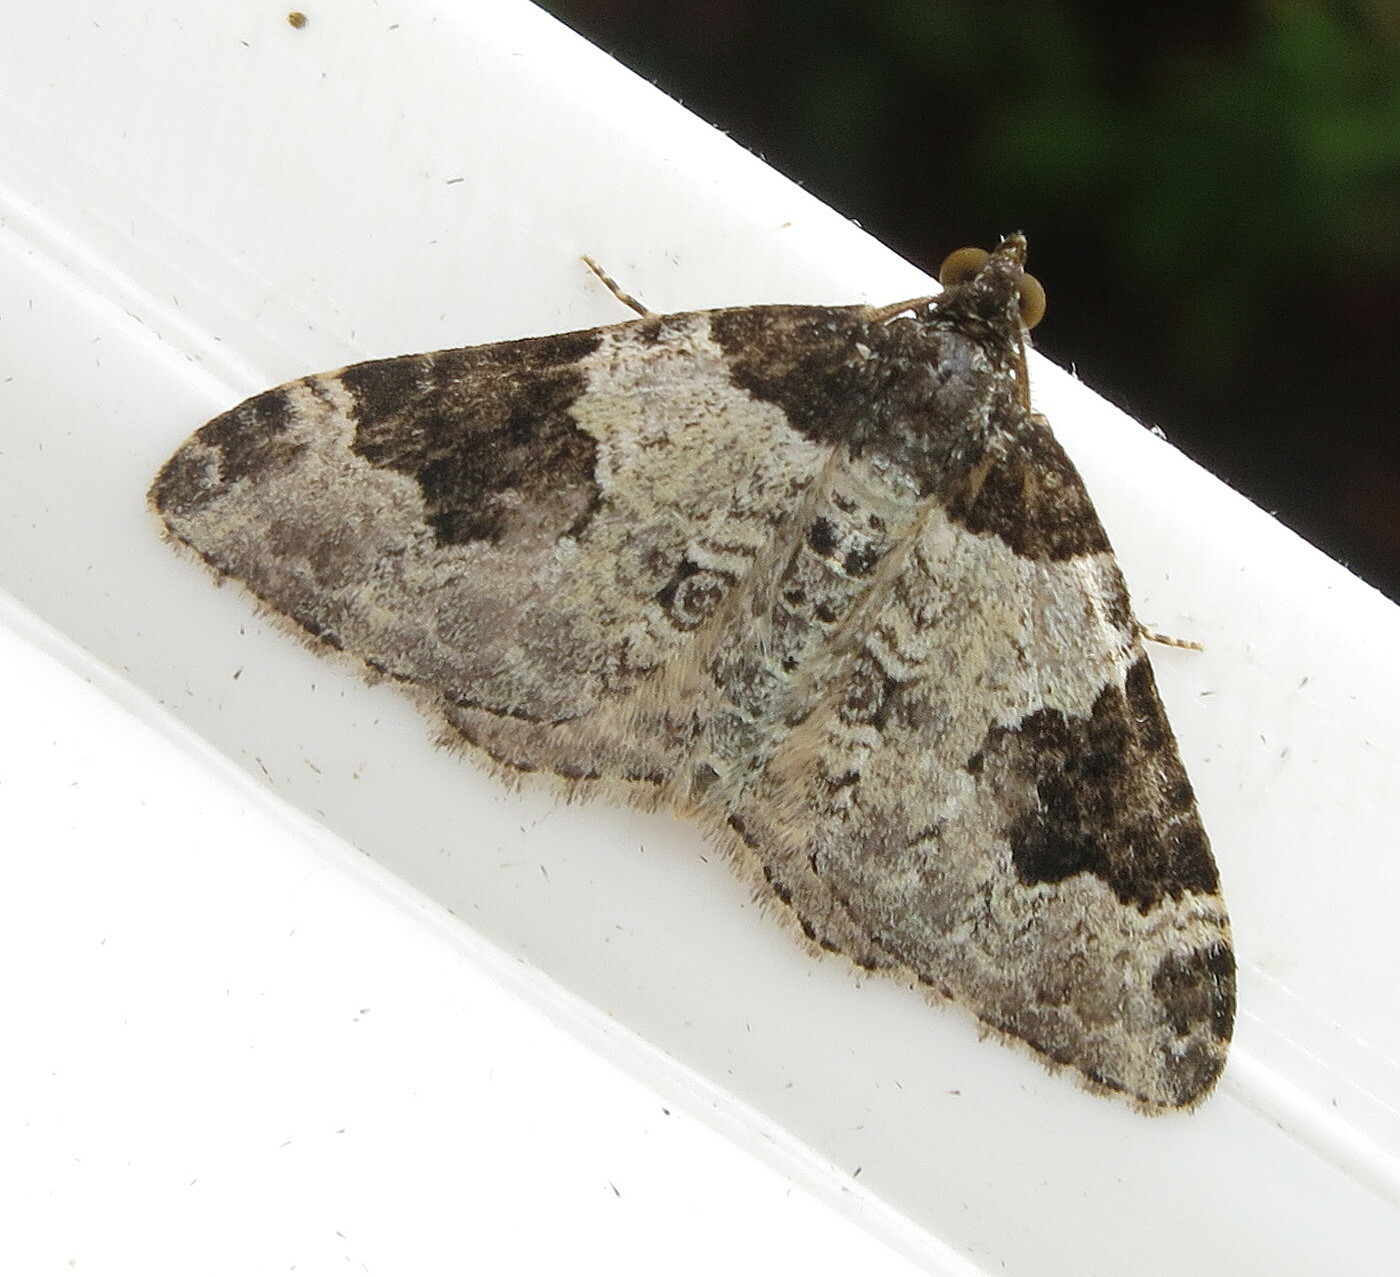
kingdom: Animalia
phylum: Arthropoda
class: Insecta
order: Lepidoptera
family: Geometridae
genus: Xanthorhoe
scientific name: Xanthorhoe fluctuata
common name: Garden carpet
